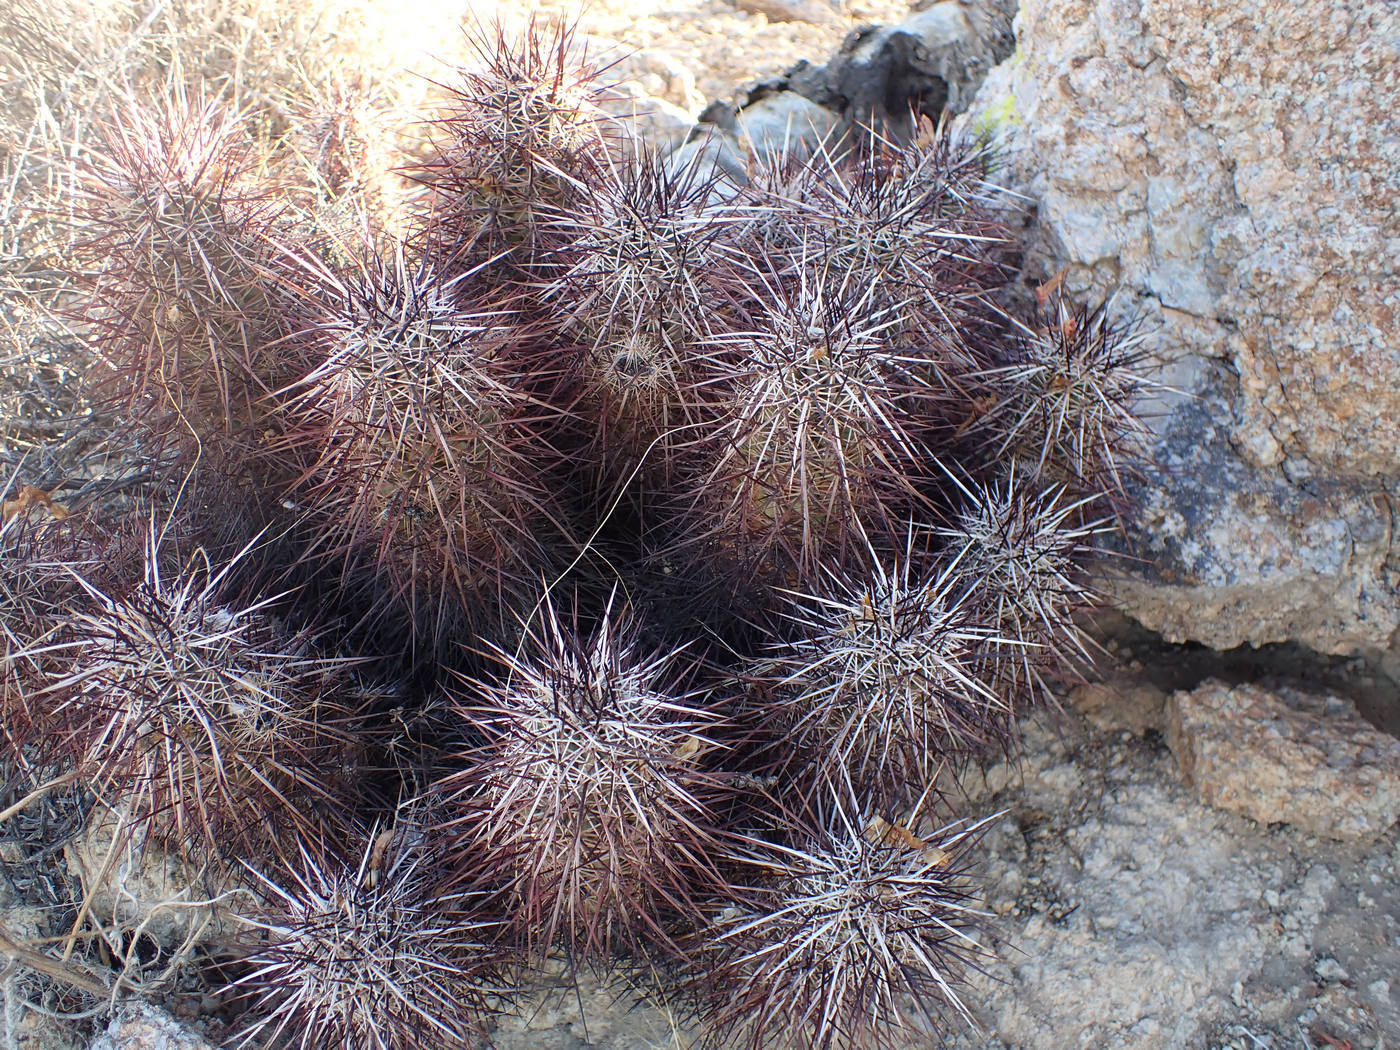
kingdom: Plantae
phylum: Tracheophyta
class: Magnoliopsida
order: Caryophyllales
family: Cactaceae
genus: Echinocereus
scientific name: Echinocereus engelmannii
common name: Engelmann's hedgehog cactus
